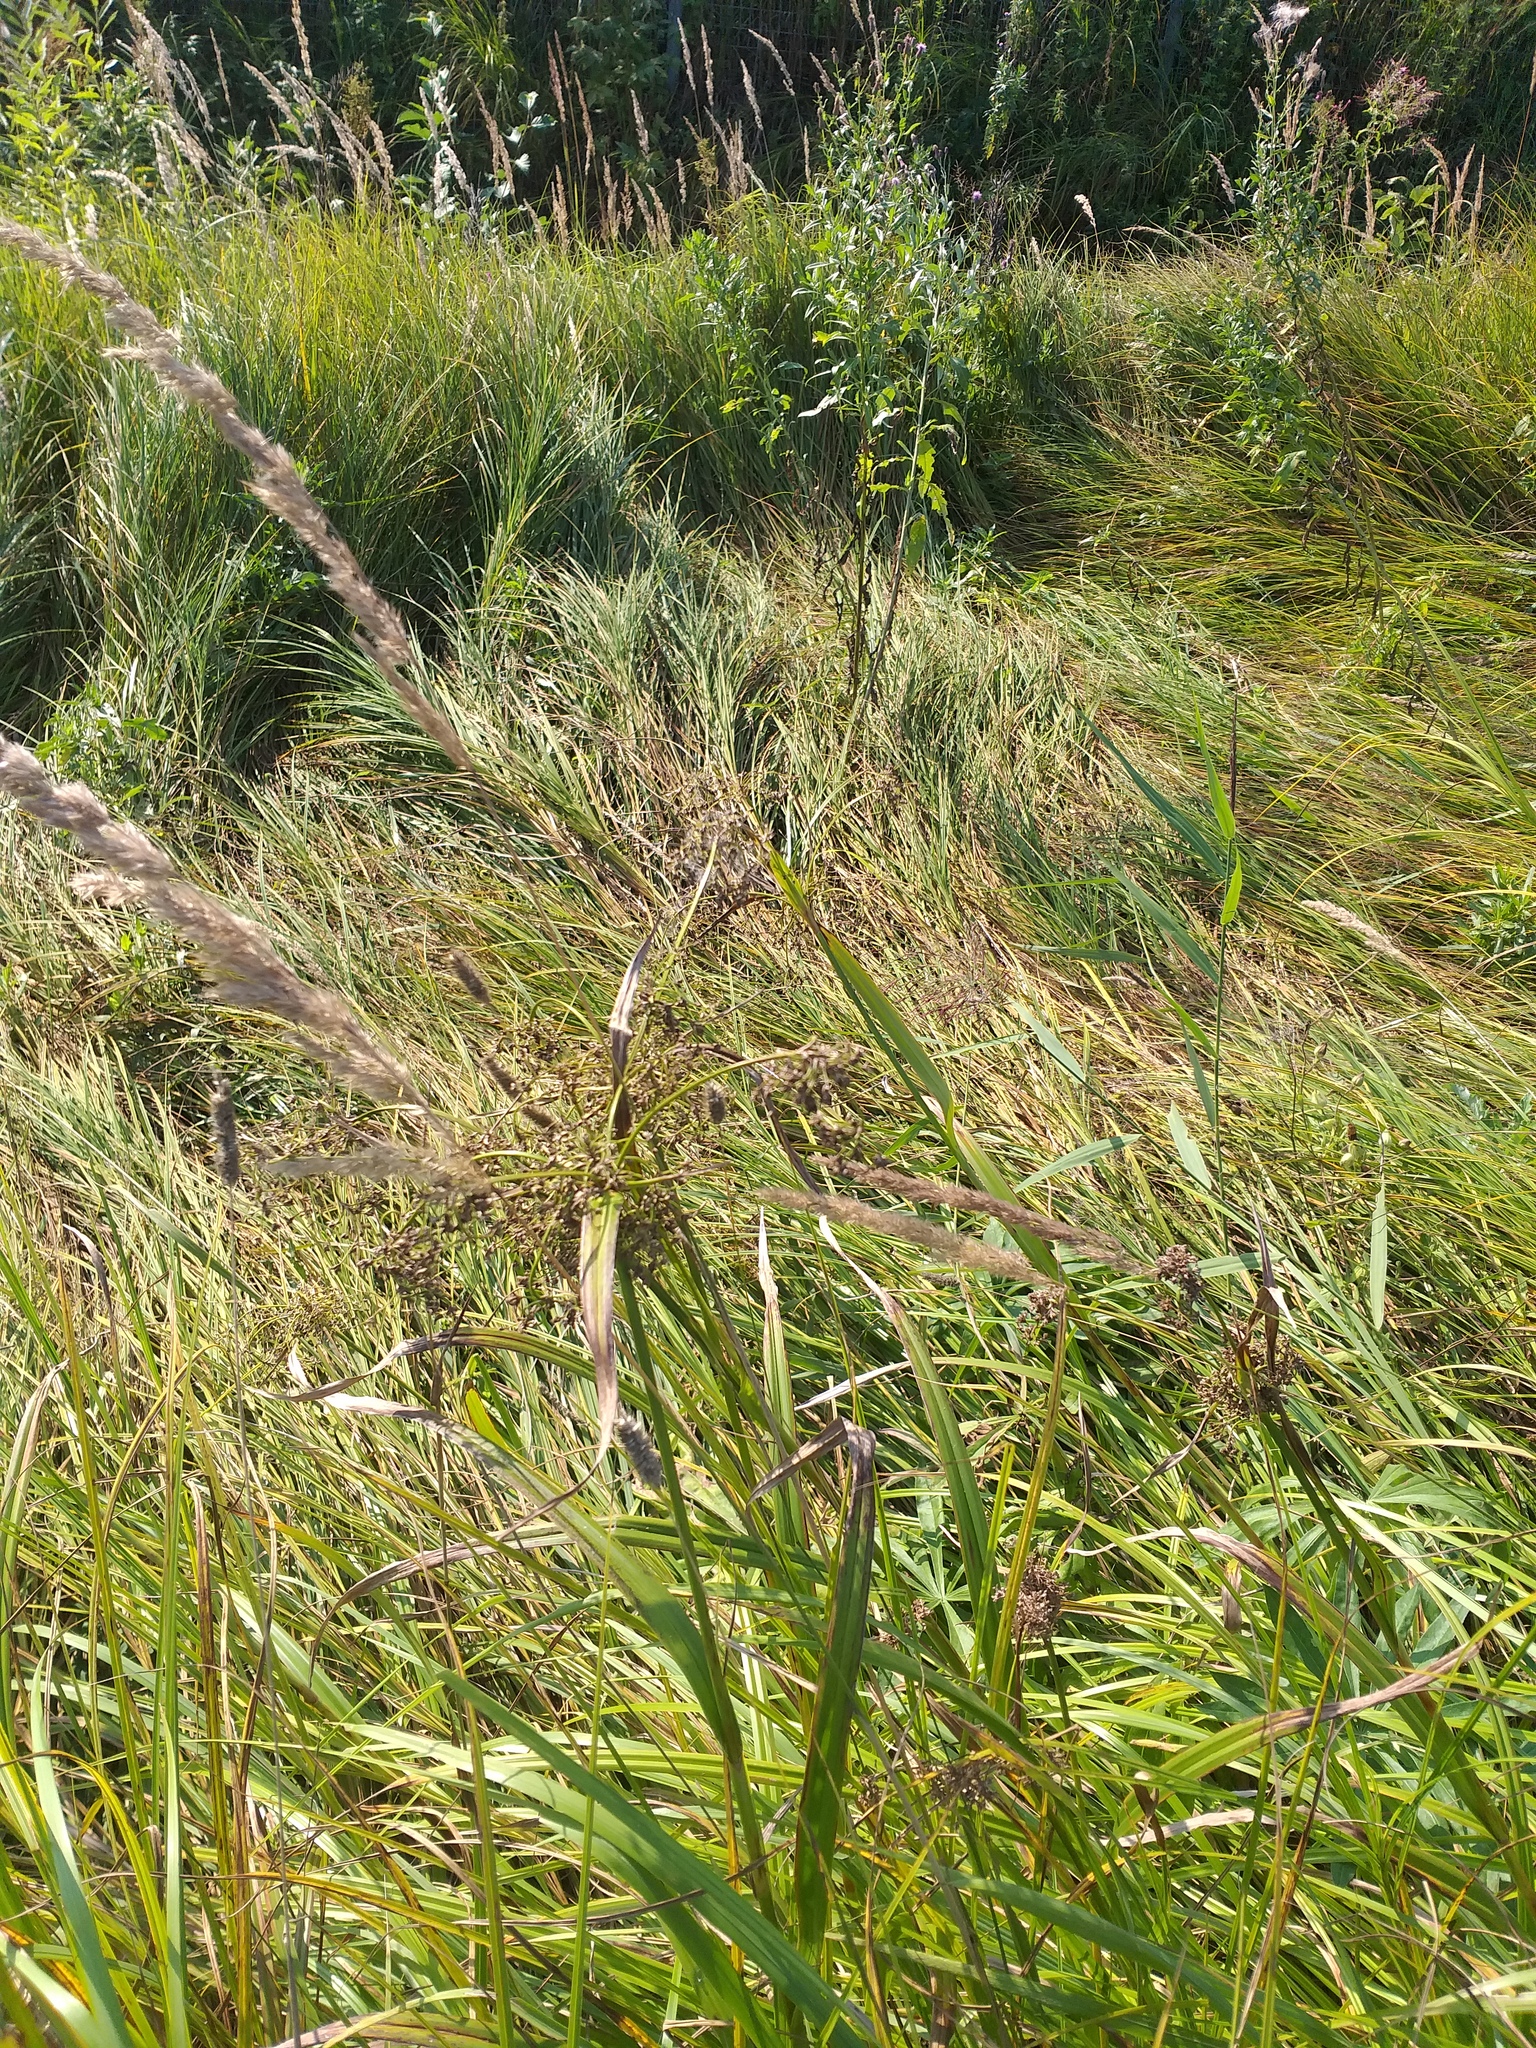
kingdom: Plantae
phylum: Tracheophyta
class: Liliopsida
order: Poales
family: Cyperaceae
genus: Scirpus
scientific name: Scirpus sylvaticus
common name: Wood club-rush
